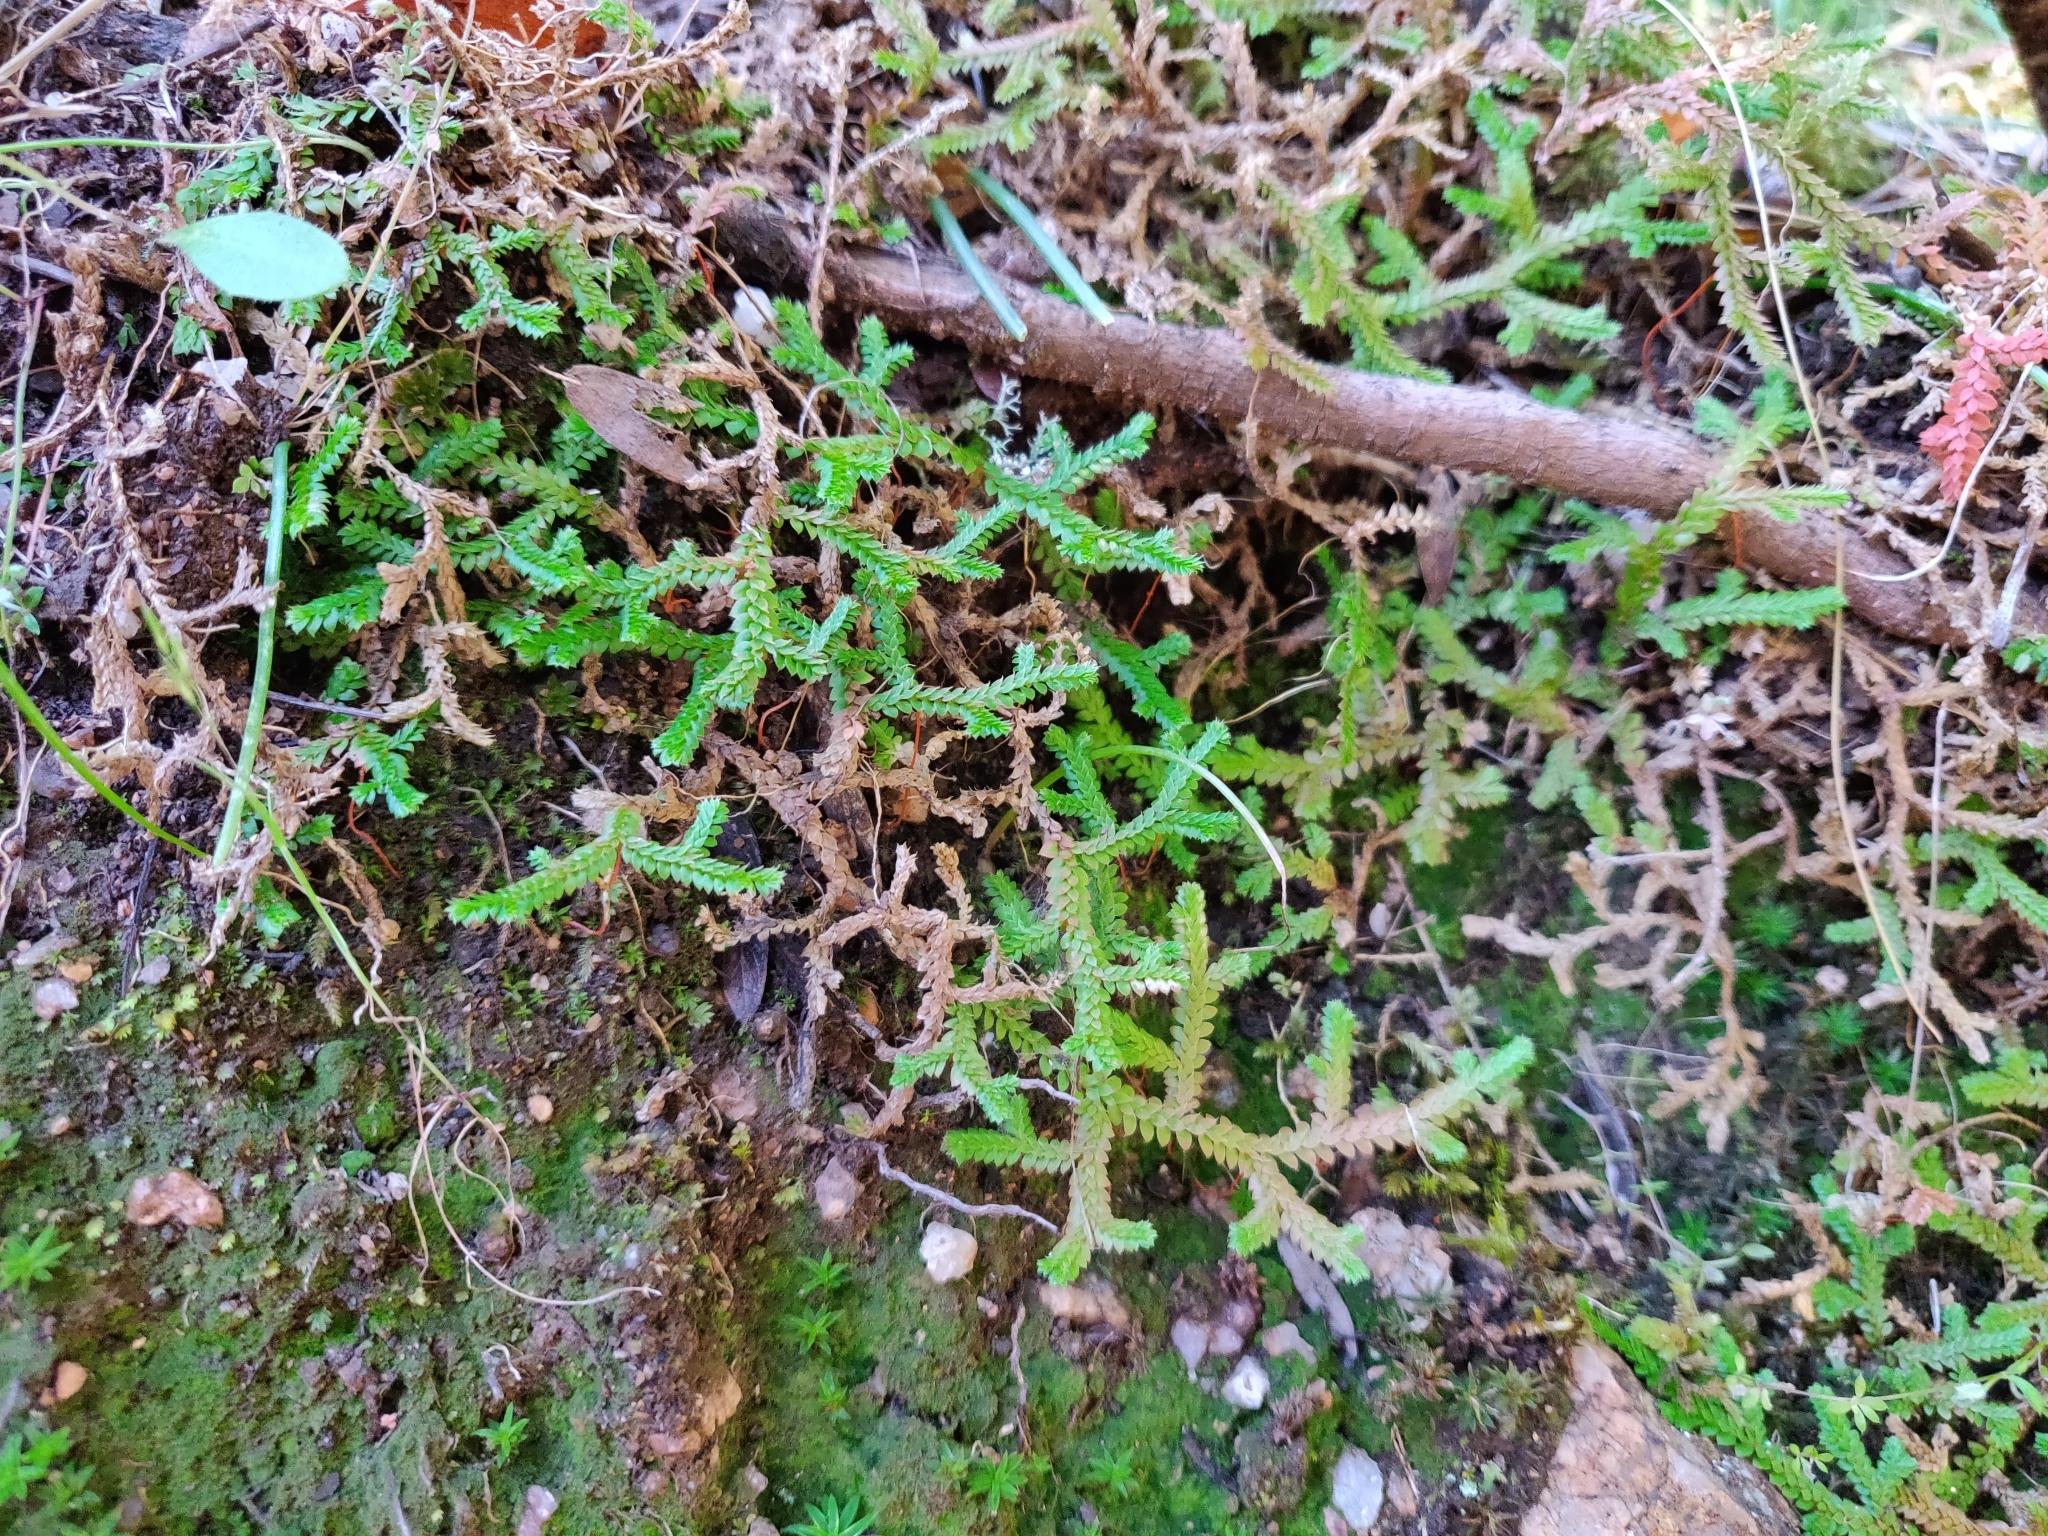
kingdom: Plantae
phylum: Tracheophyta
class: Lycopodiopsida
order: Selaginellales
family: Selaginellaceae
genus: Selaginella
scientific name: Selaginella denticulata
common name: Toothed-leaved clubmoss
